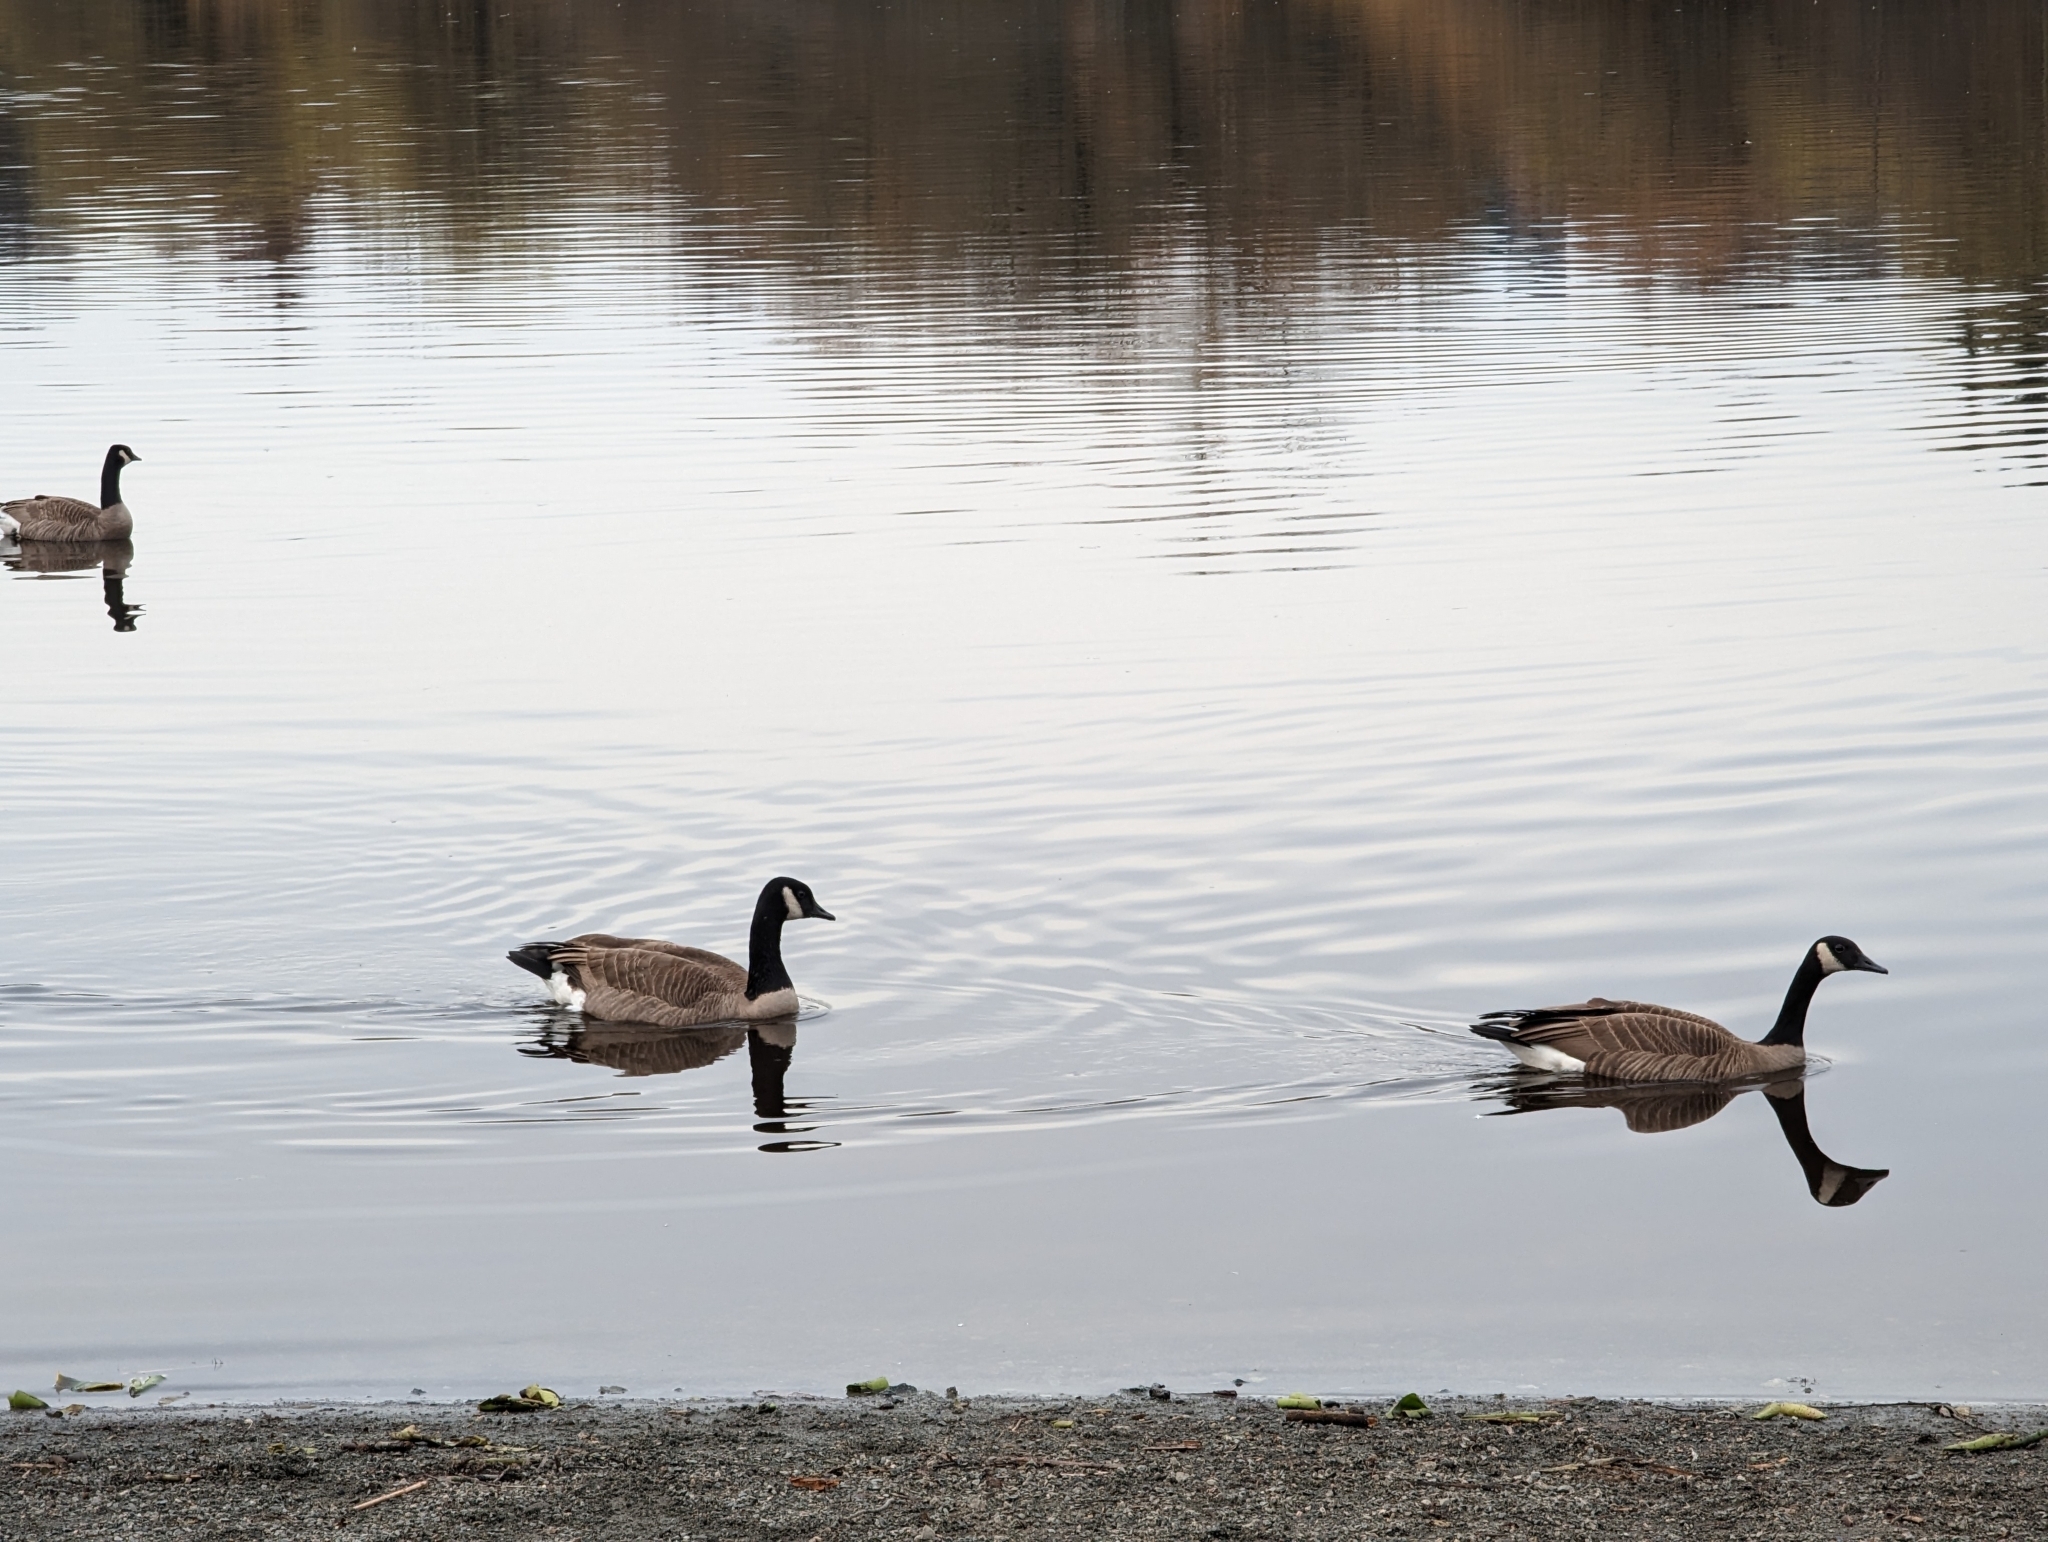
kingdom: Animalia
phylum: Chordata
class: Aves
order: Anseriformes
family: Anatidae
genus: Branta
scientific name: Branta canadensis
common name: Canada goose
